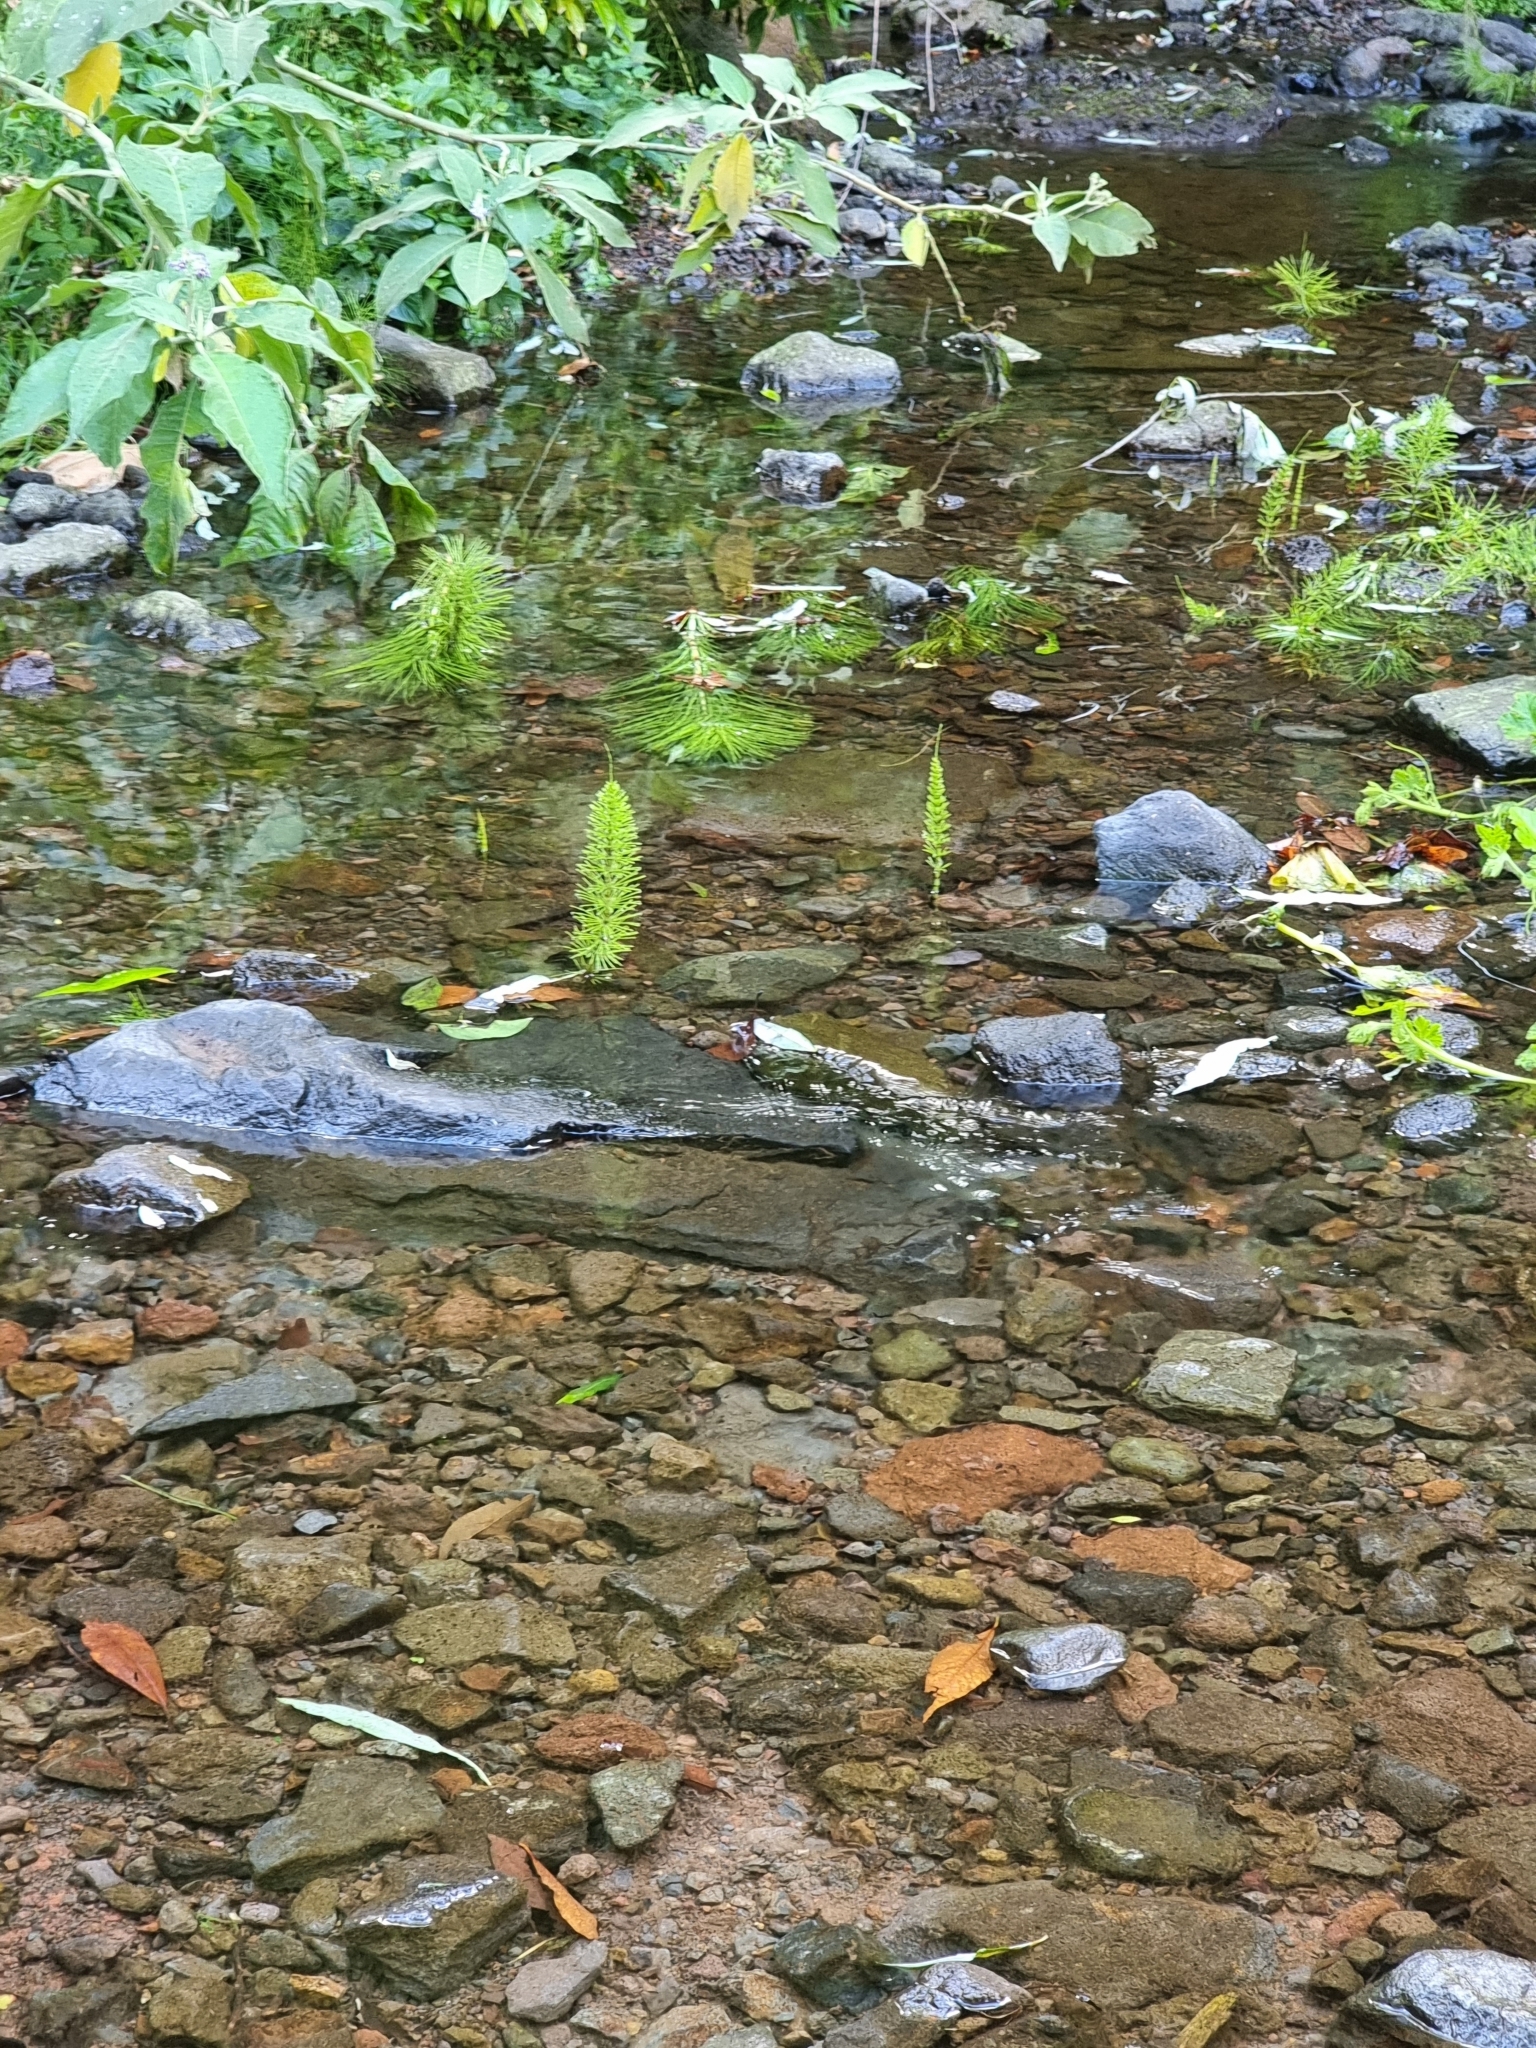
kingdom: Plantae
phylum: Tracheophyta
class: Polypodiopsida
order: Equisetales
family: Equisetaceae
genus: Equisetum
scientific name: Equisetum telmateia
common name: Great horsetail
